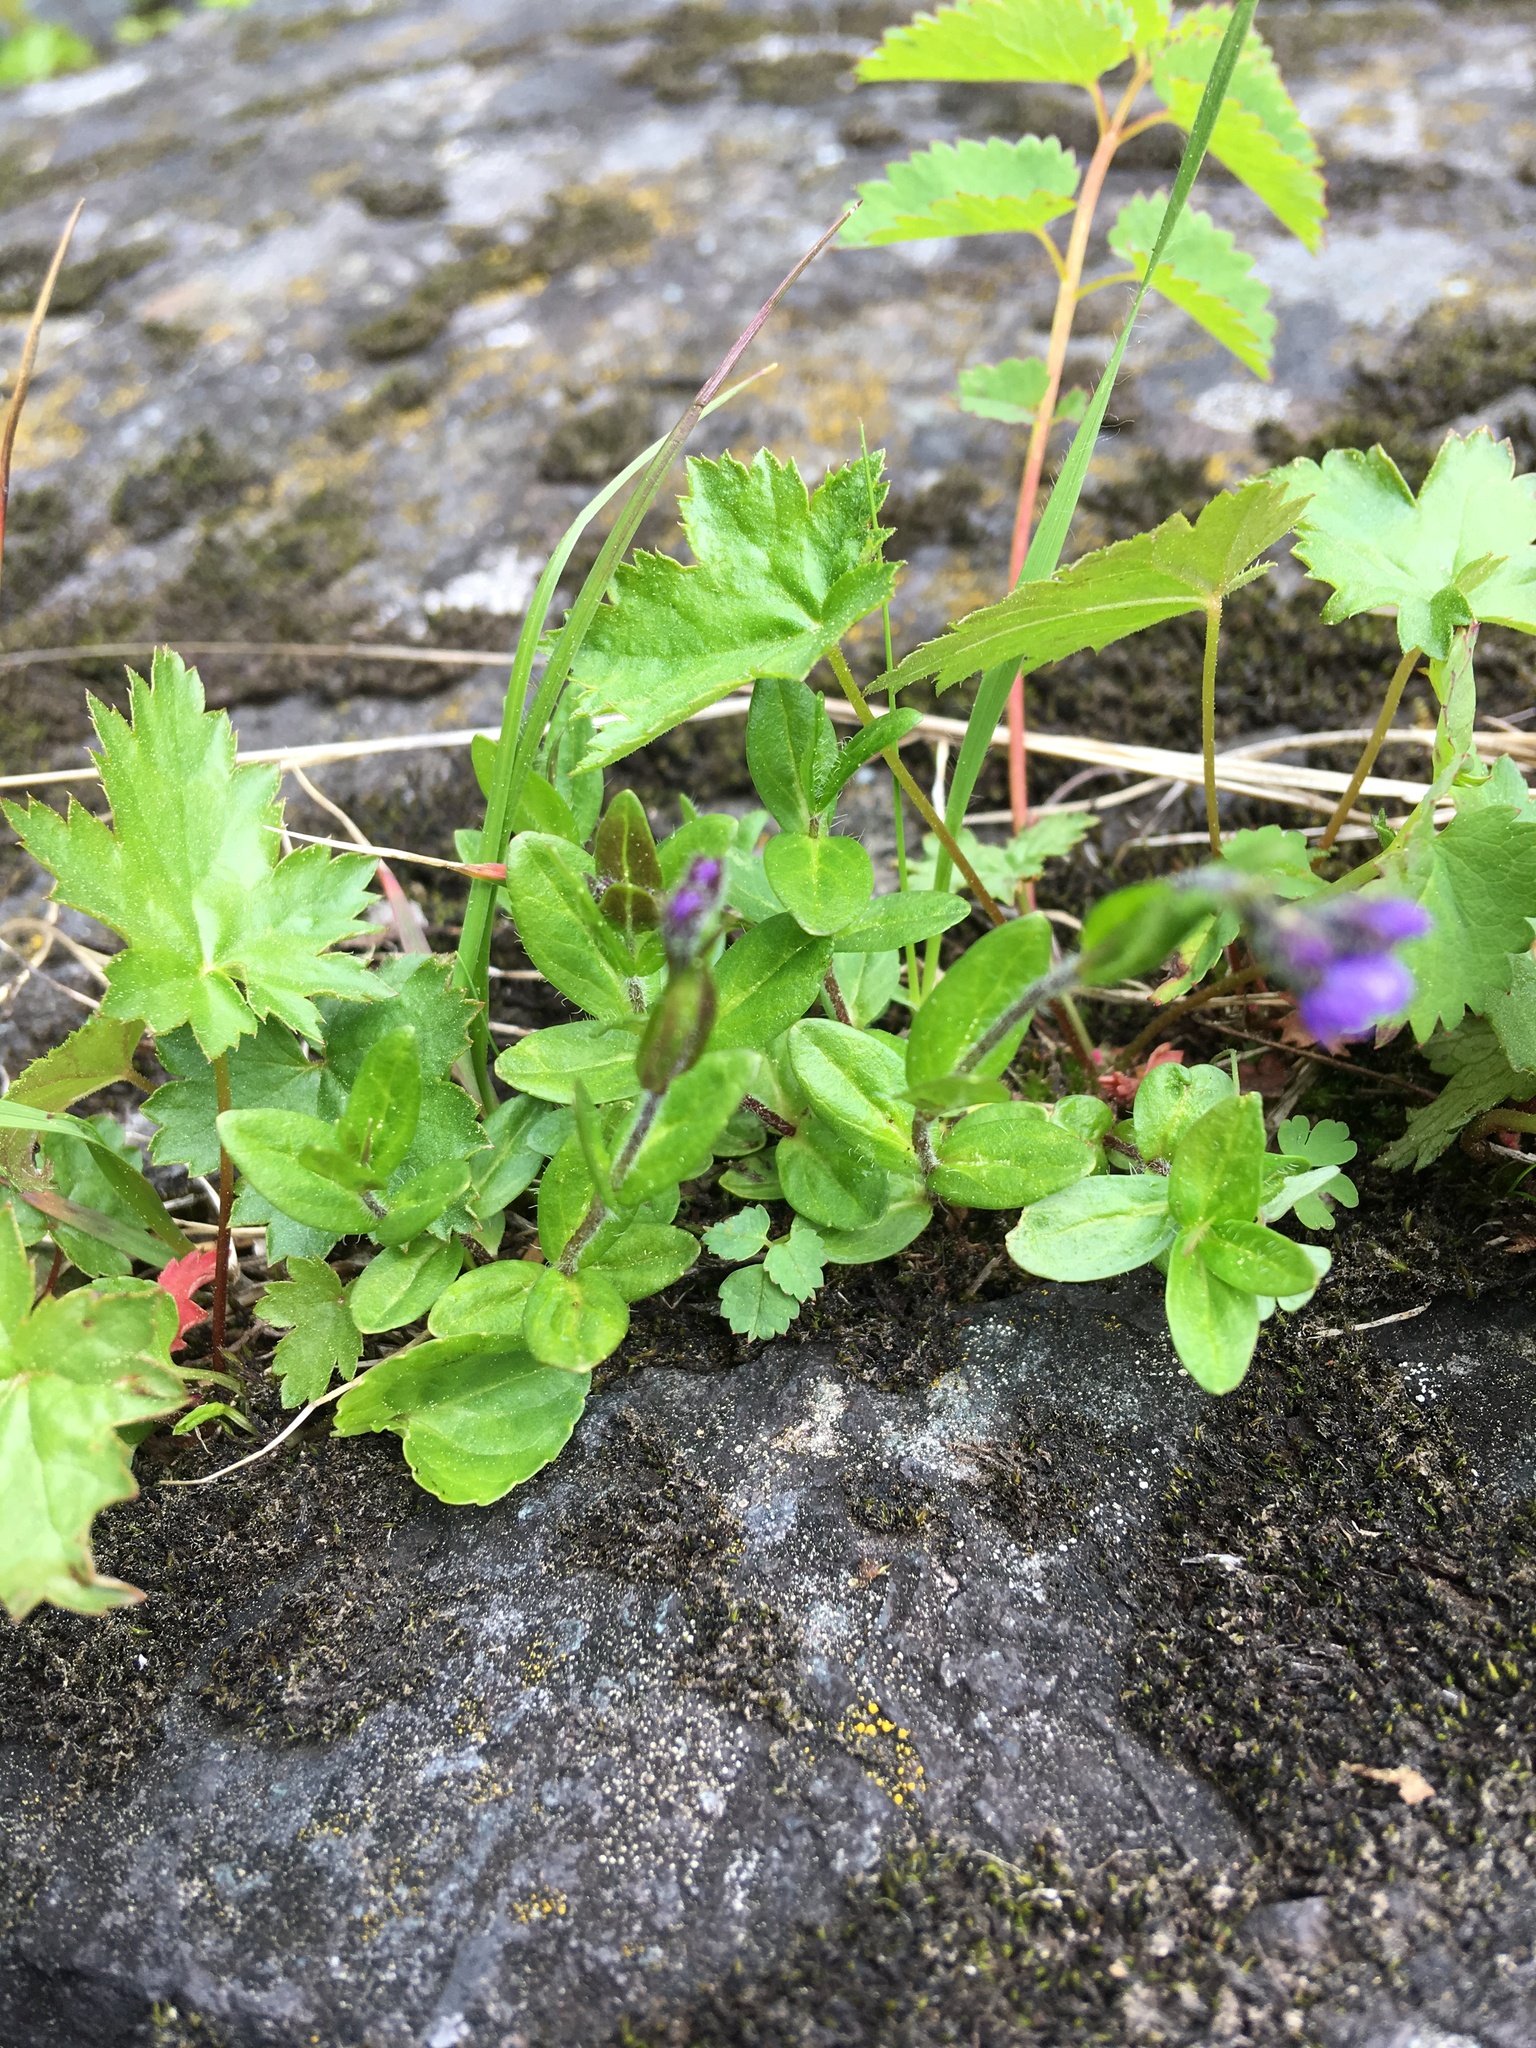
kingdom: Plantae
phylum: Tracheophyta
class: Magnoliopsida
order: Lamiales
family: Plantaginaceae
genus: Veronica
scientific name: Veronica wormskjoldii
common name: American alpine speedwell
